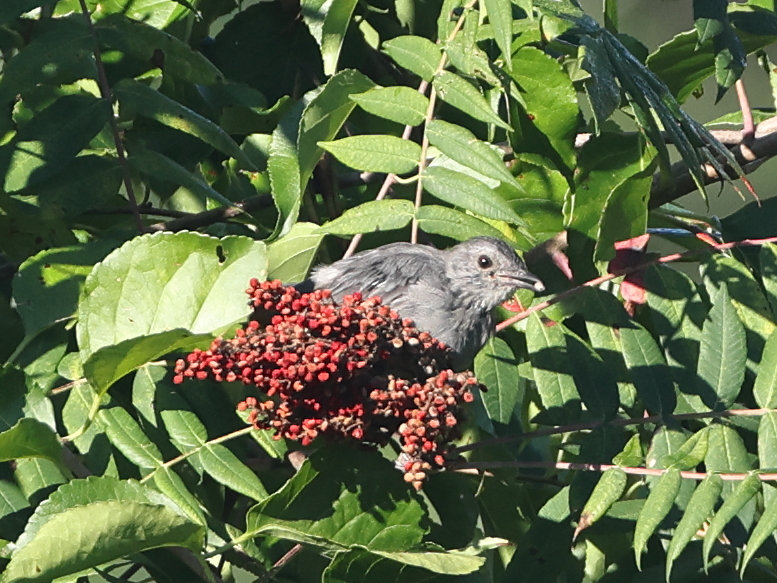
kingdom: Animalia
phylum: Chordata
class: Aves
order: Passeriformes
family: Mimidae
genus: Dumetella
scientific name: Dumetella carolinensis
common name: Gray catbird
